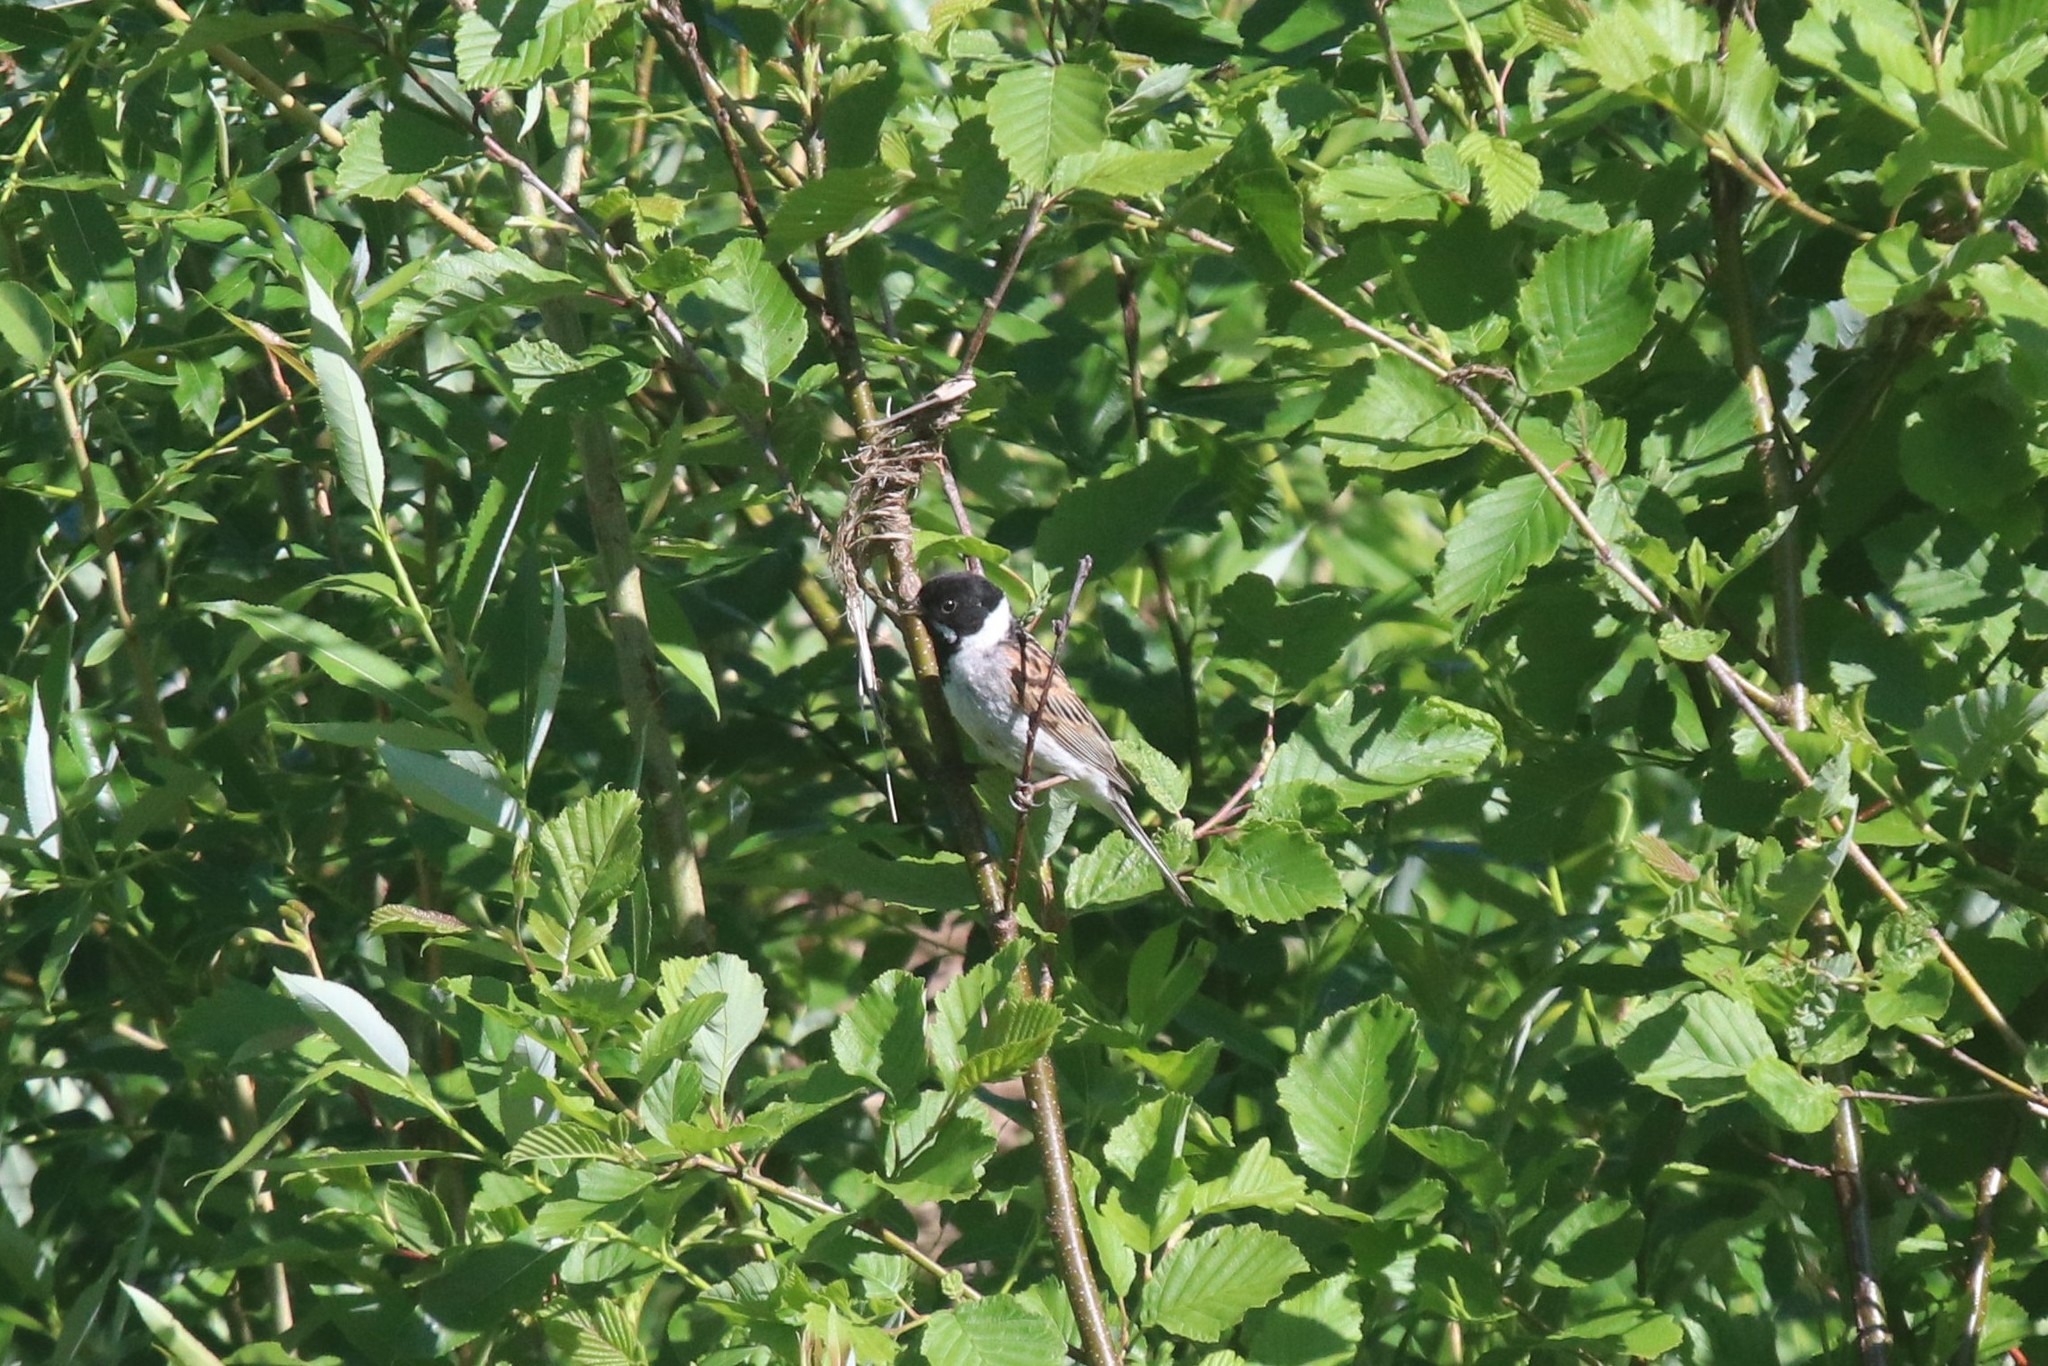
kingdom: Animalia
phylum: Chordata
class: Aves
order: Passeriformes
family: Emberizidae
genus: Emberiza
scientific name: Emberiza schoeniclus
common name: Reed bunting
